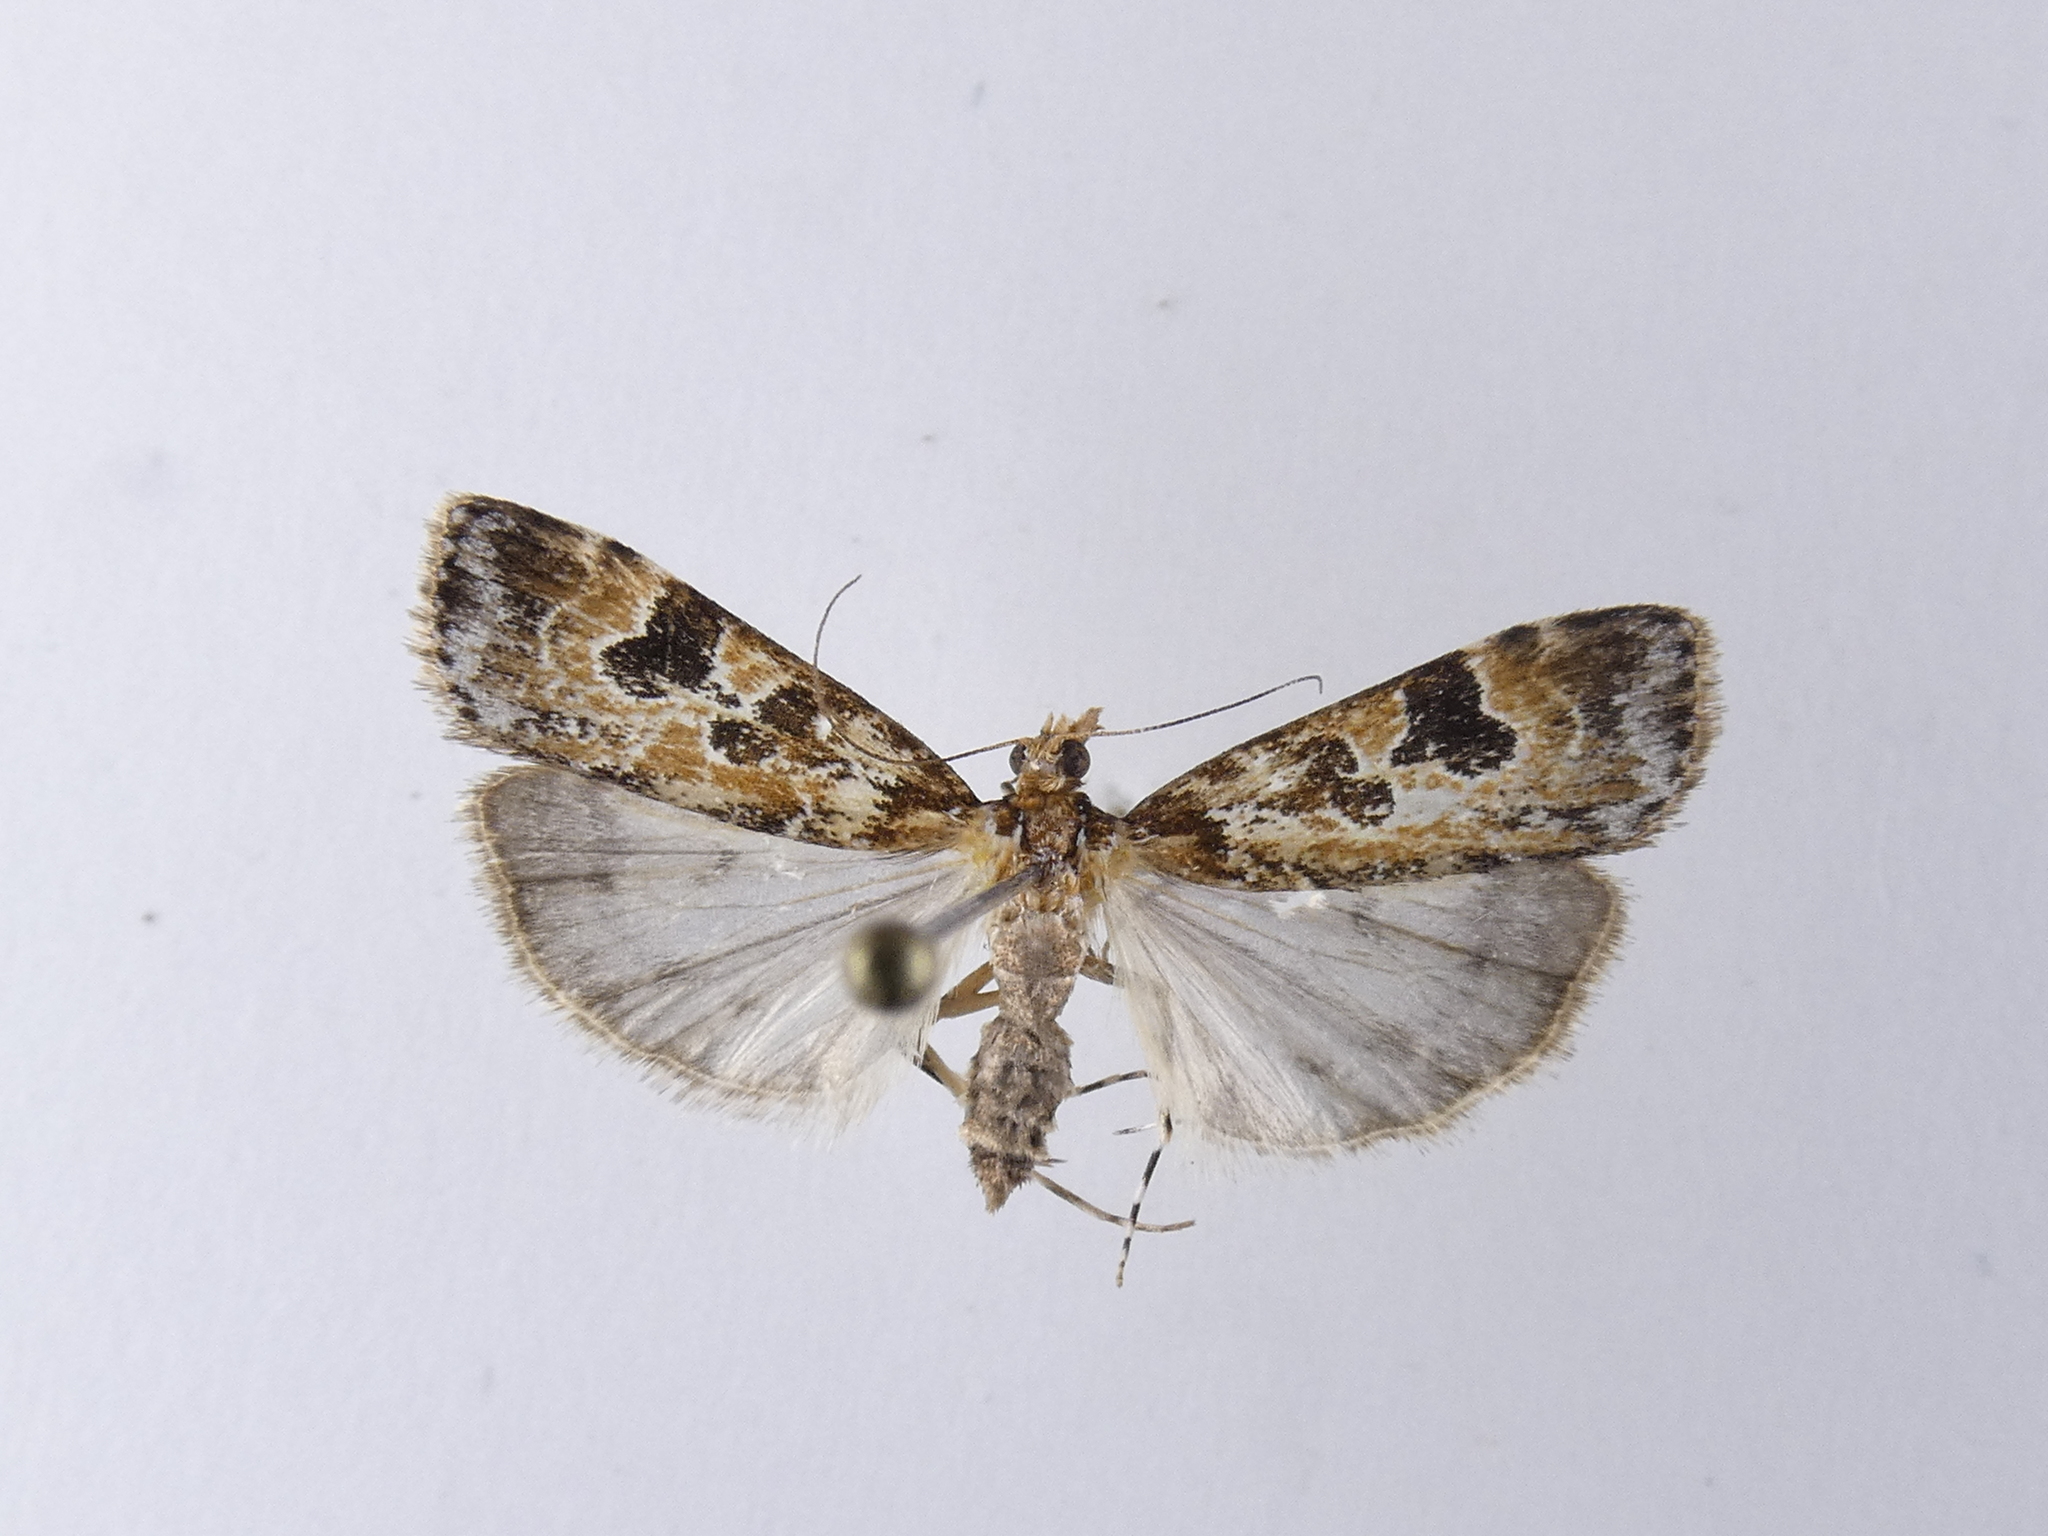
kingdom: Animalia
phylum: Arthropoda
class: Insecta
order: Lepidoptera
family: Crambidae
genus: Scoparia
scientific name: Scoparia ustimacula
